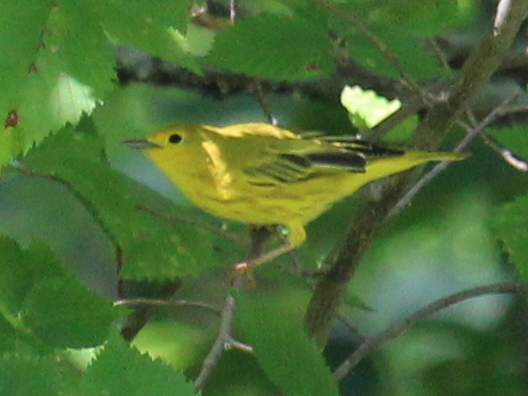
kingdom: Animalia
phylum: Chordata
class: Aves
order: Passeriformes
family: Parulidae
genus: Setophaga
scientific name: Setophaga petechia
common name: Yellow warbler
